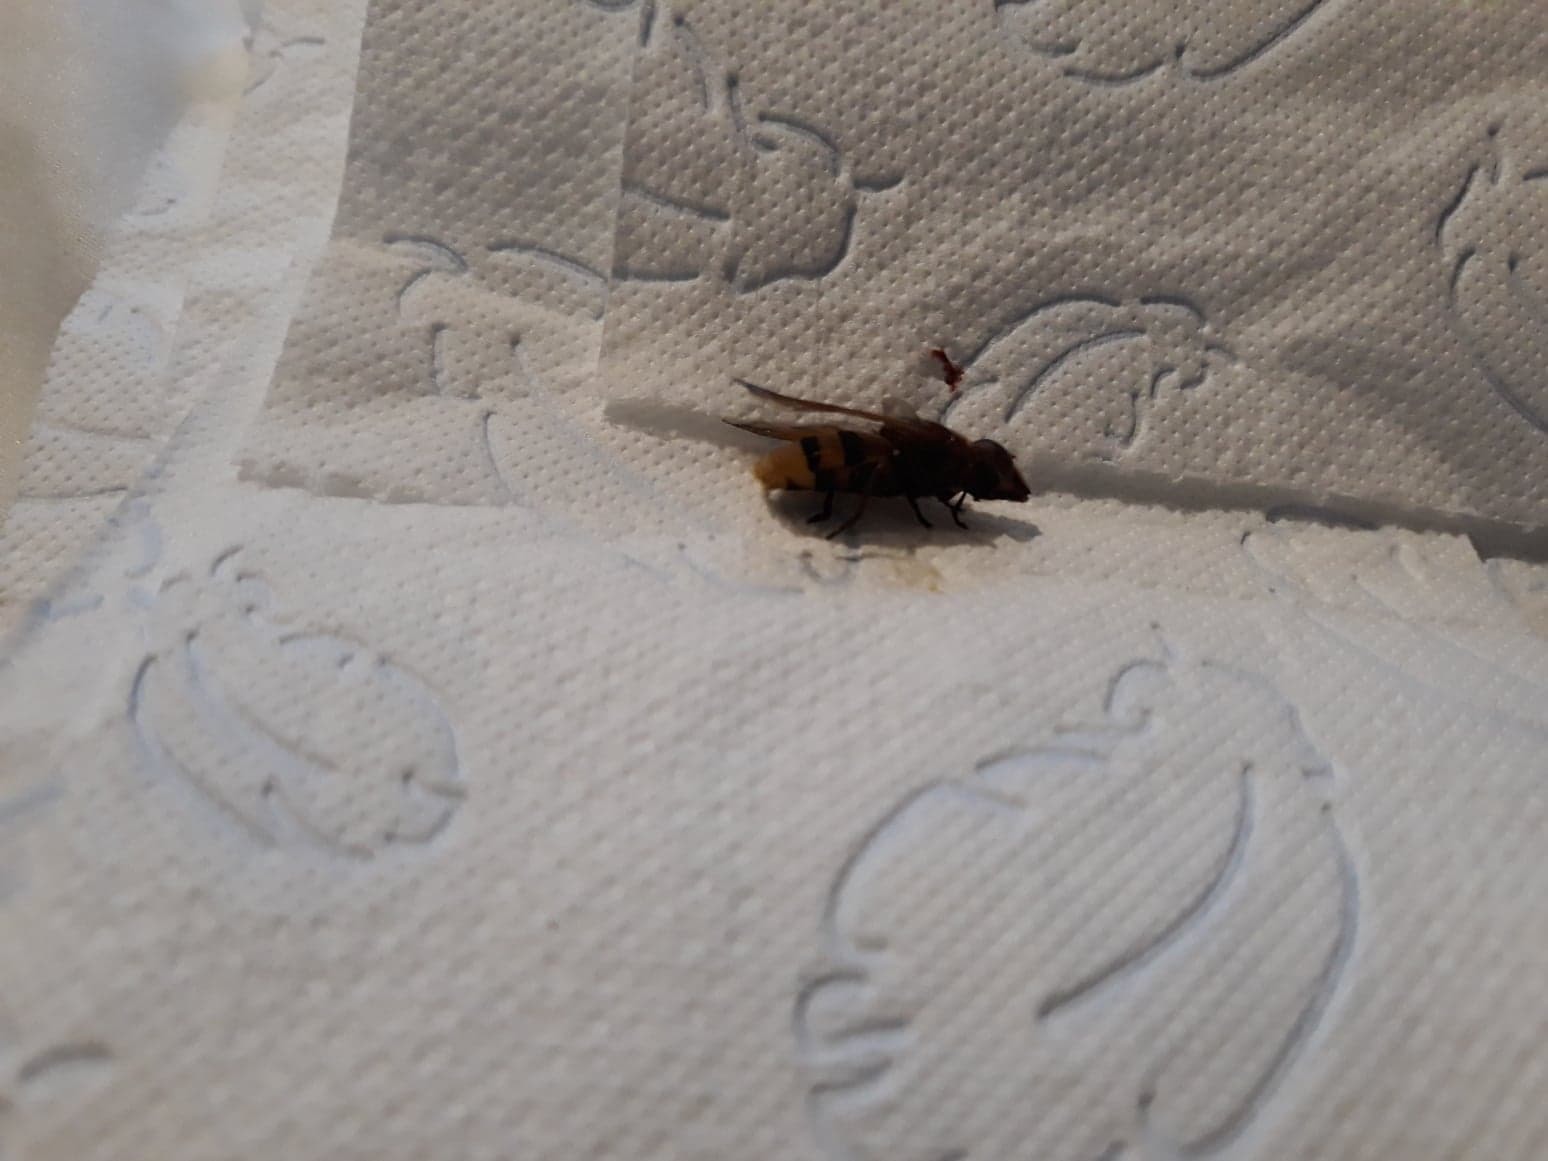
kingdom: Animalia
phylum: Arthropoda
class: Insecta
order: Diptera
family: Syrphidae
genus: Volucella
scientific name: Volucella zonaria
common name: Hornet hoverfly
